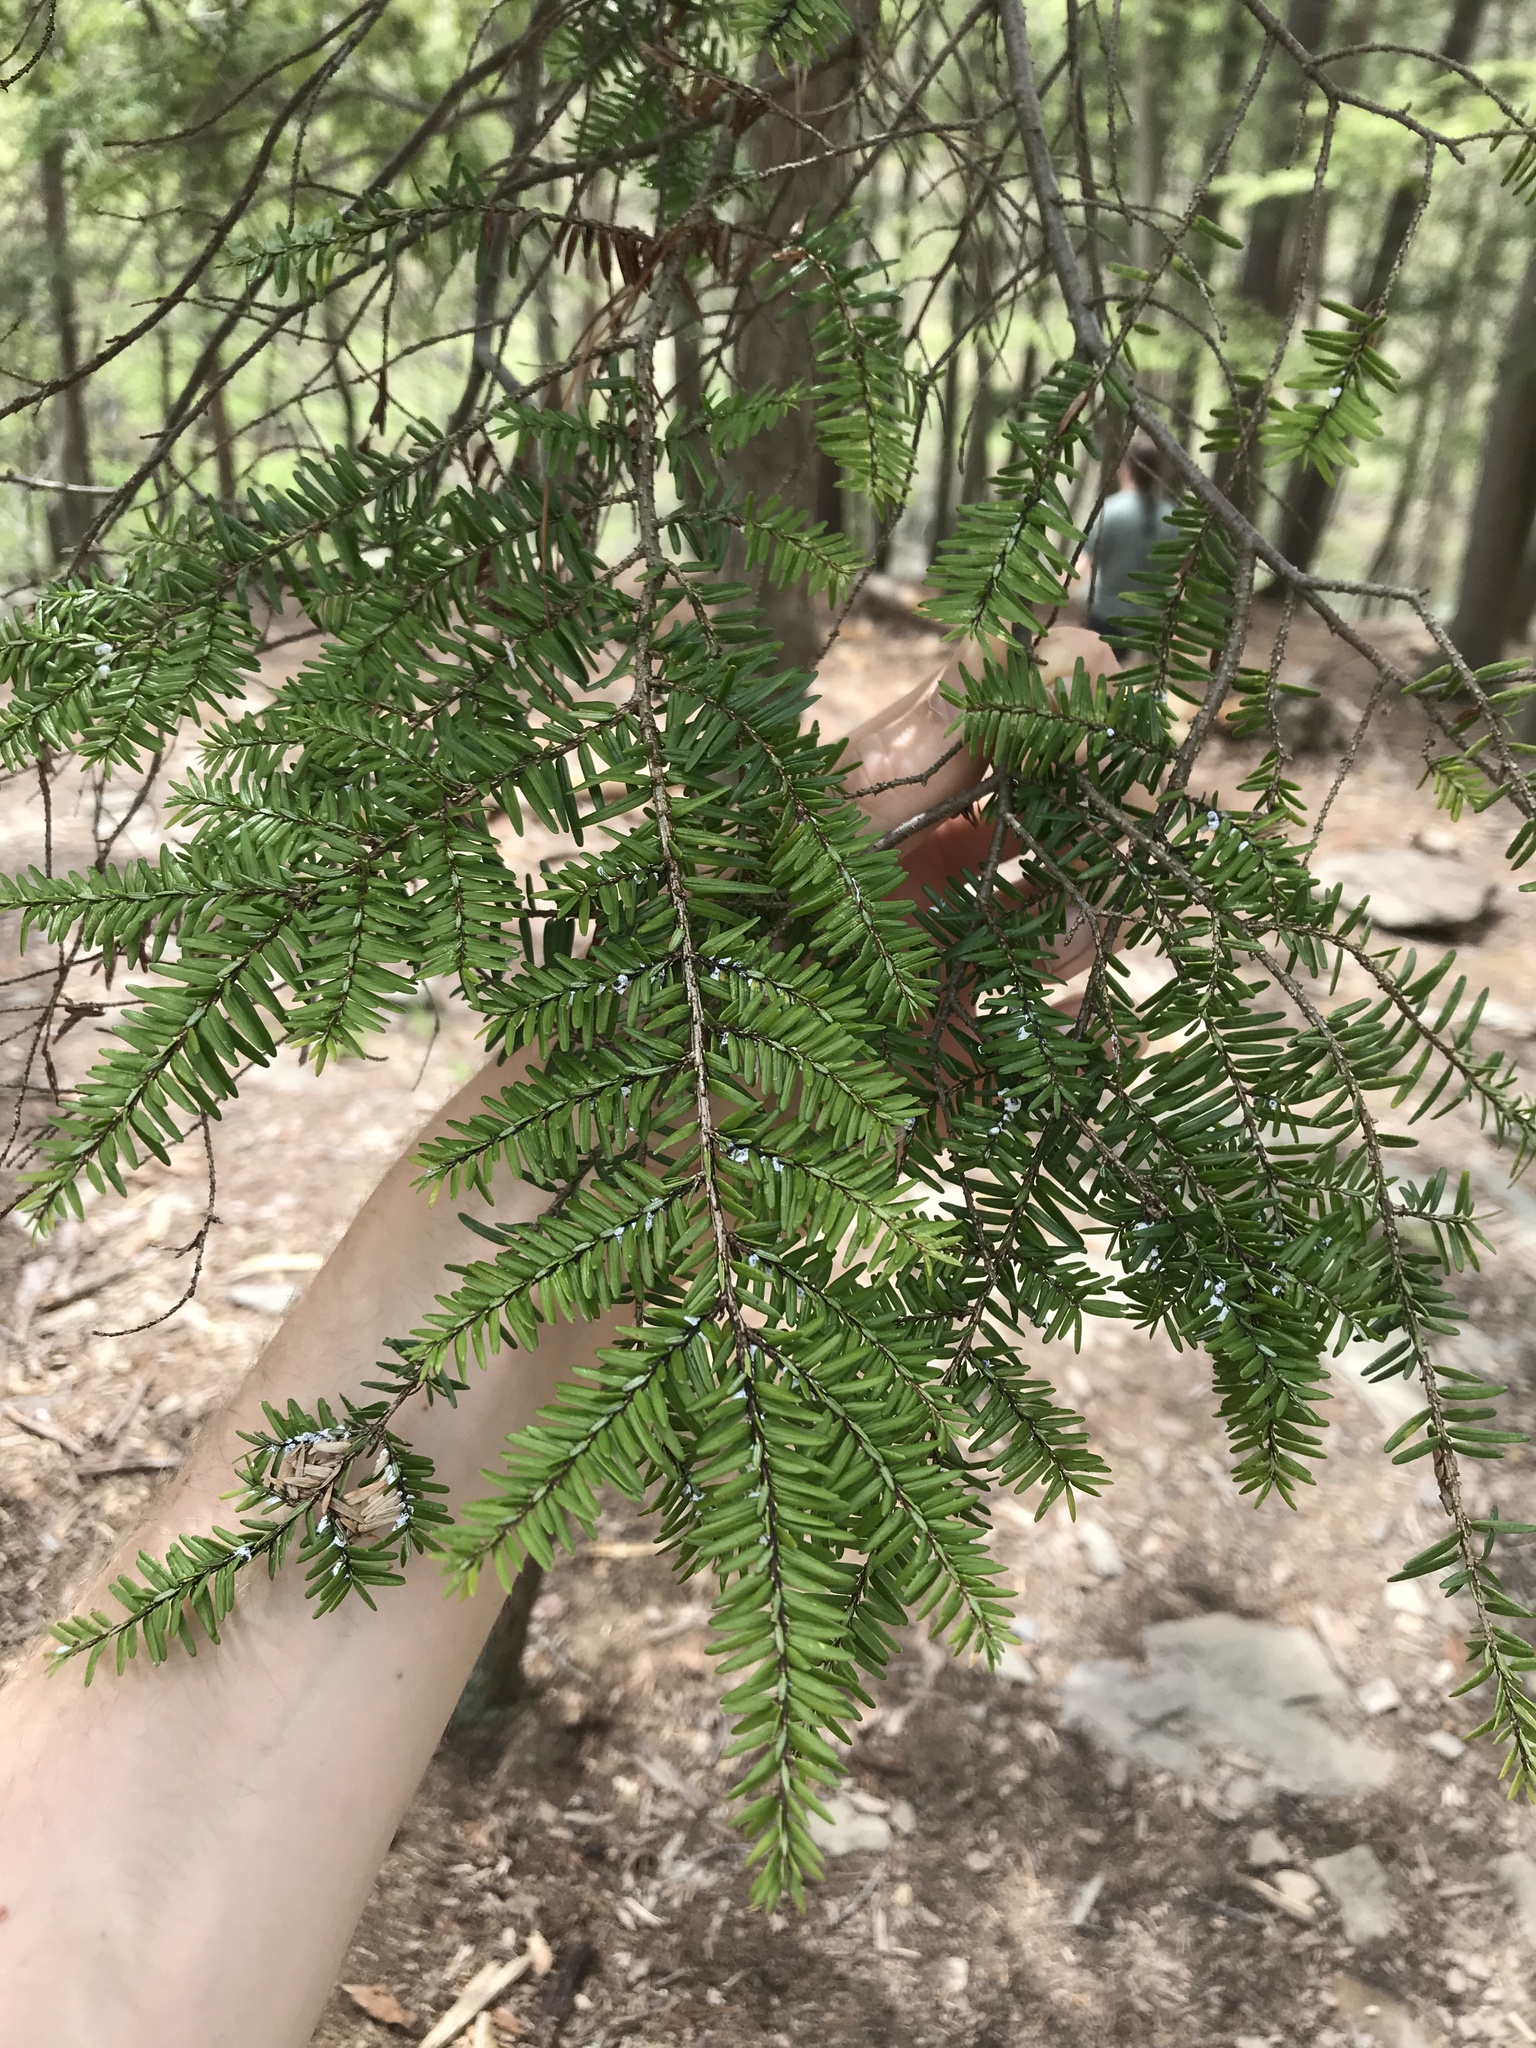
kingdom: Plantae
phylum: Tracheophyta
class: Pinopsida
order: Pinales
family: Pinaceae
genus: Tsuga
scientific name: Tsuga canadensis
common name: Eastern hemlock
